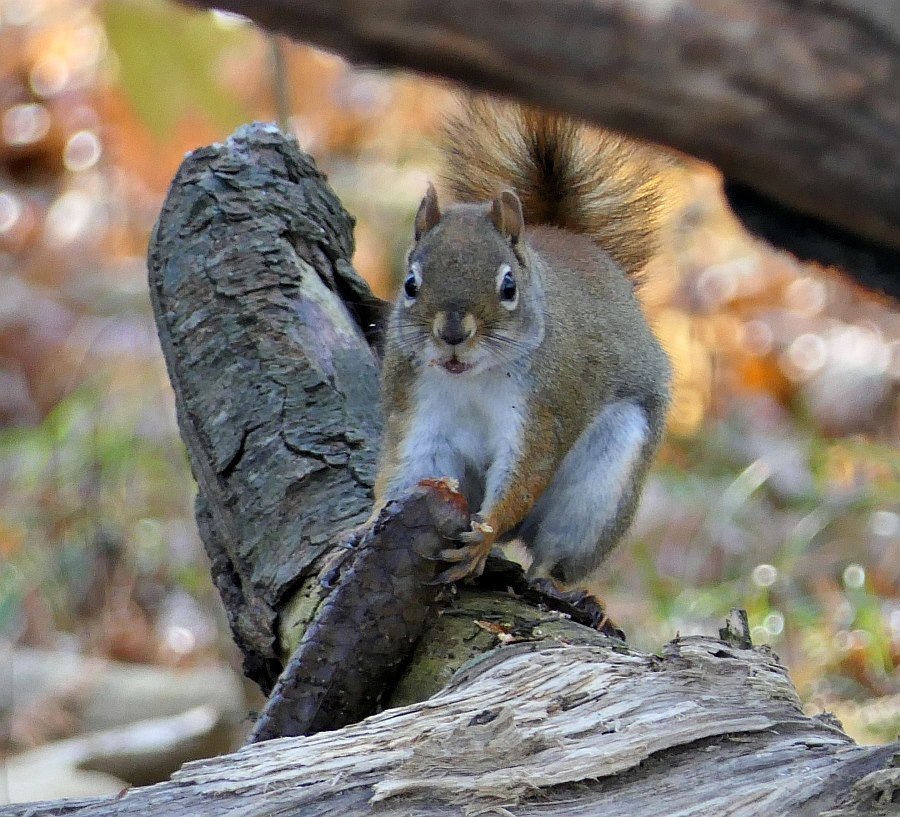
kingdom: Animalia
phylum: Chordata
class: Mammalia
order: Rodentia
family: Sciuridae
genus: Tamiasciurus
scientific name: Tamiasciurus hudsonicus
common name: Red squirrel
